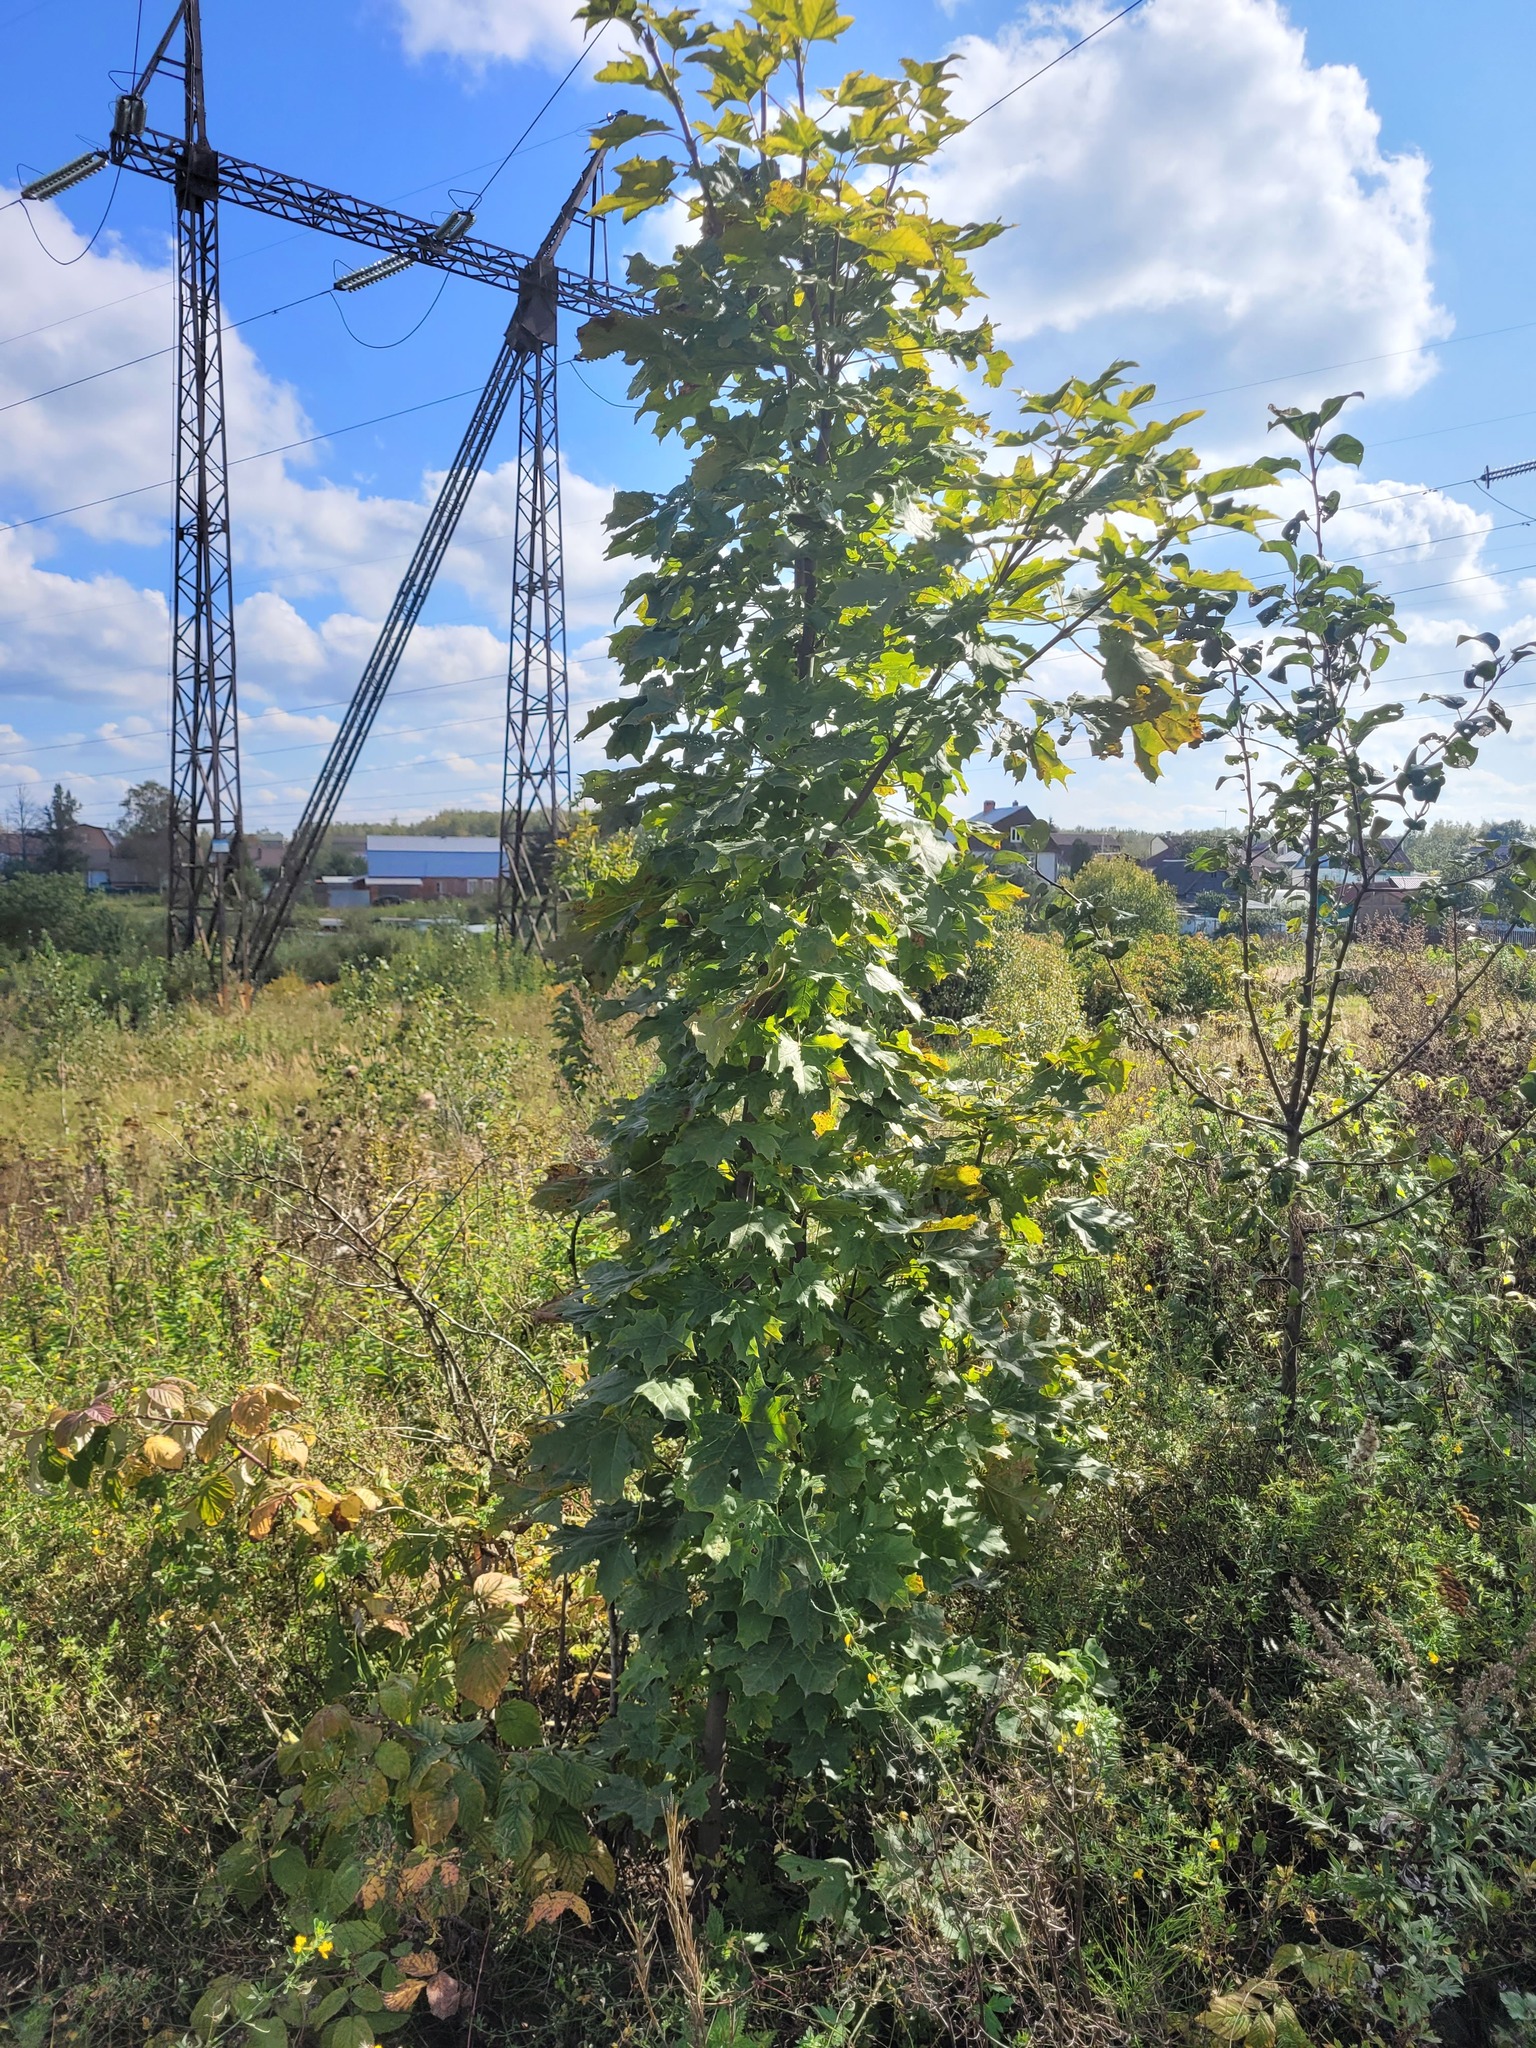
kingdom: Plantae
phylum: Tracheophyta
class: Magnoliopsida
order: Sapindales
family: Sapindaceae
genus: Acer
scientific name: Acer platanoides
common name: Norway maple
